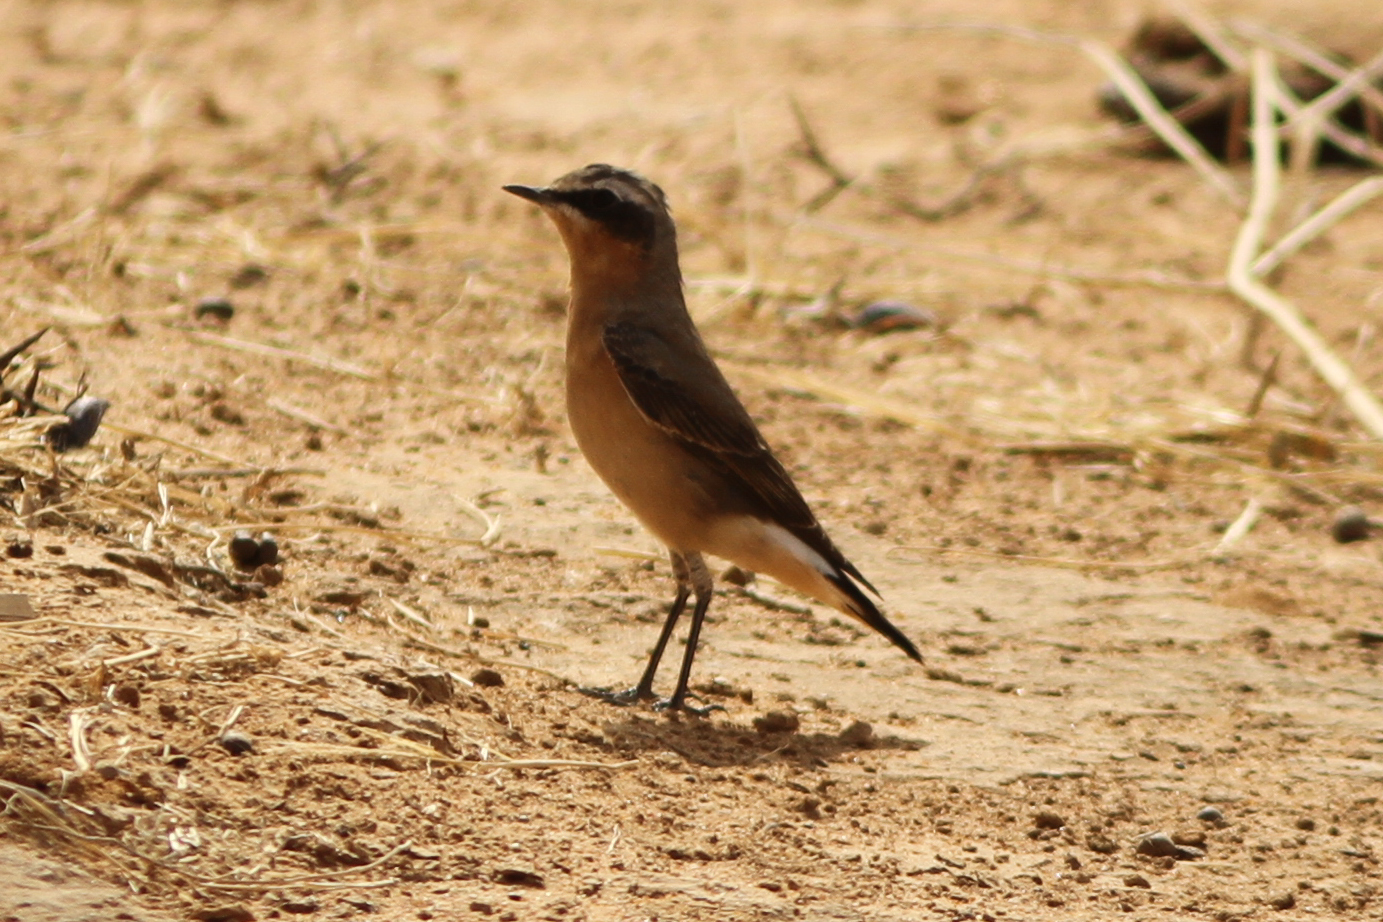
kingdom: Animalia
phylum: Chordata
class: Aves
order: Passeriformes
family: Muscicapidae
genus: Oenanthe
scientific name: Oenanthe oenanthe
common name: Northern wheatear
